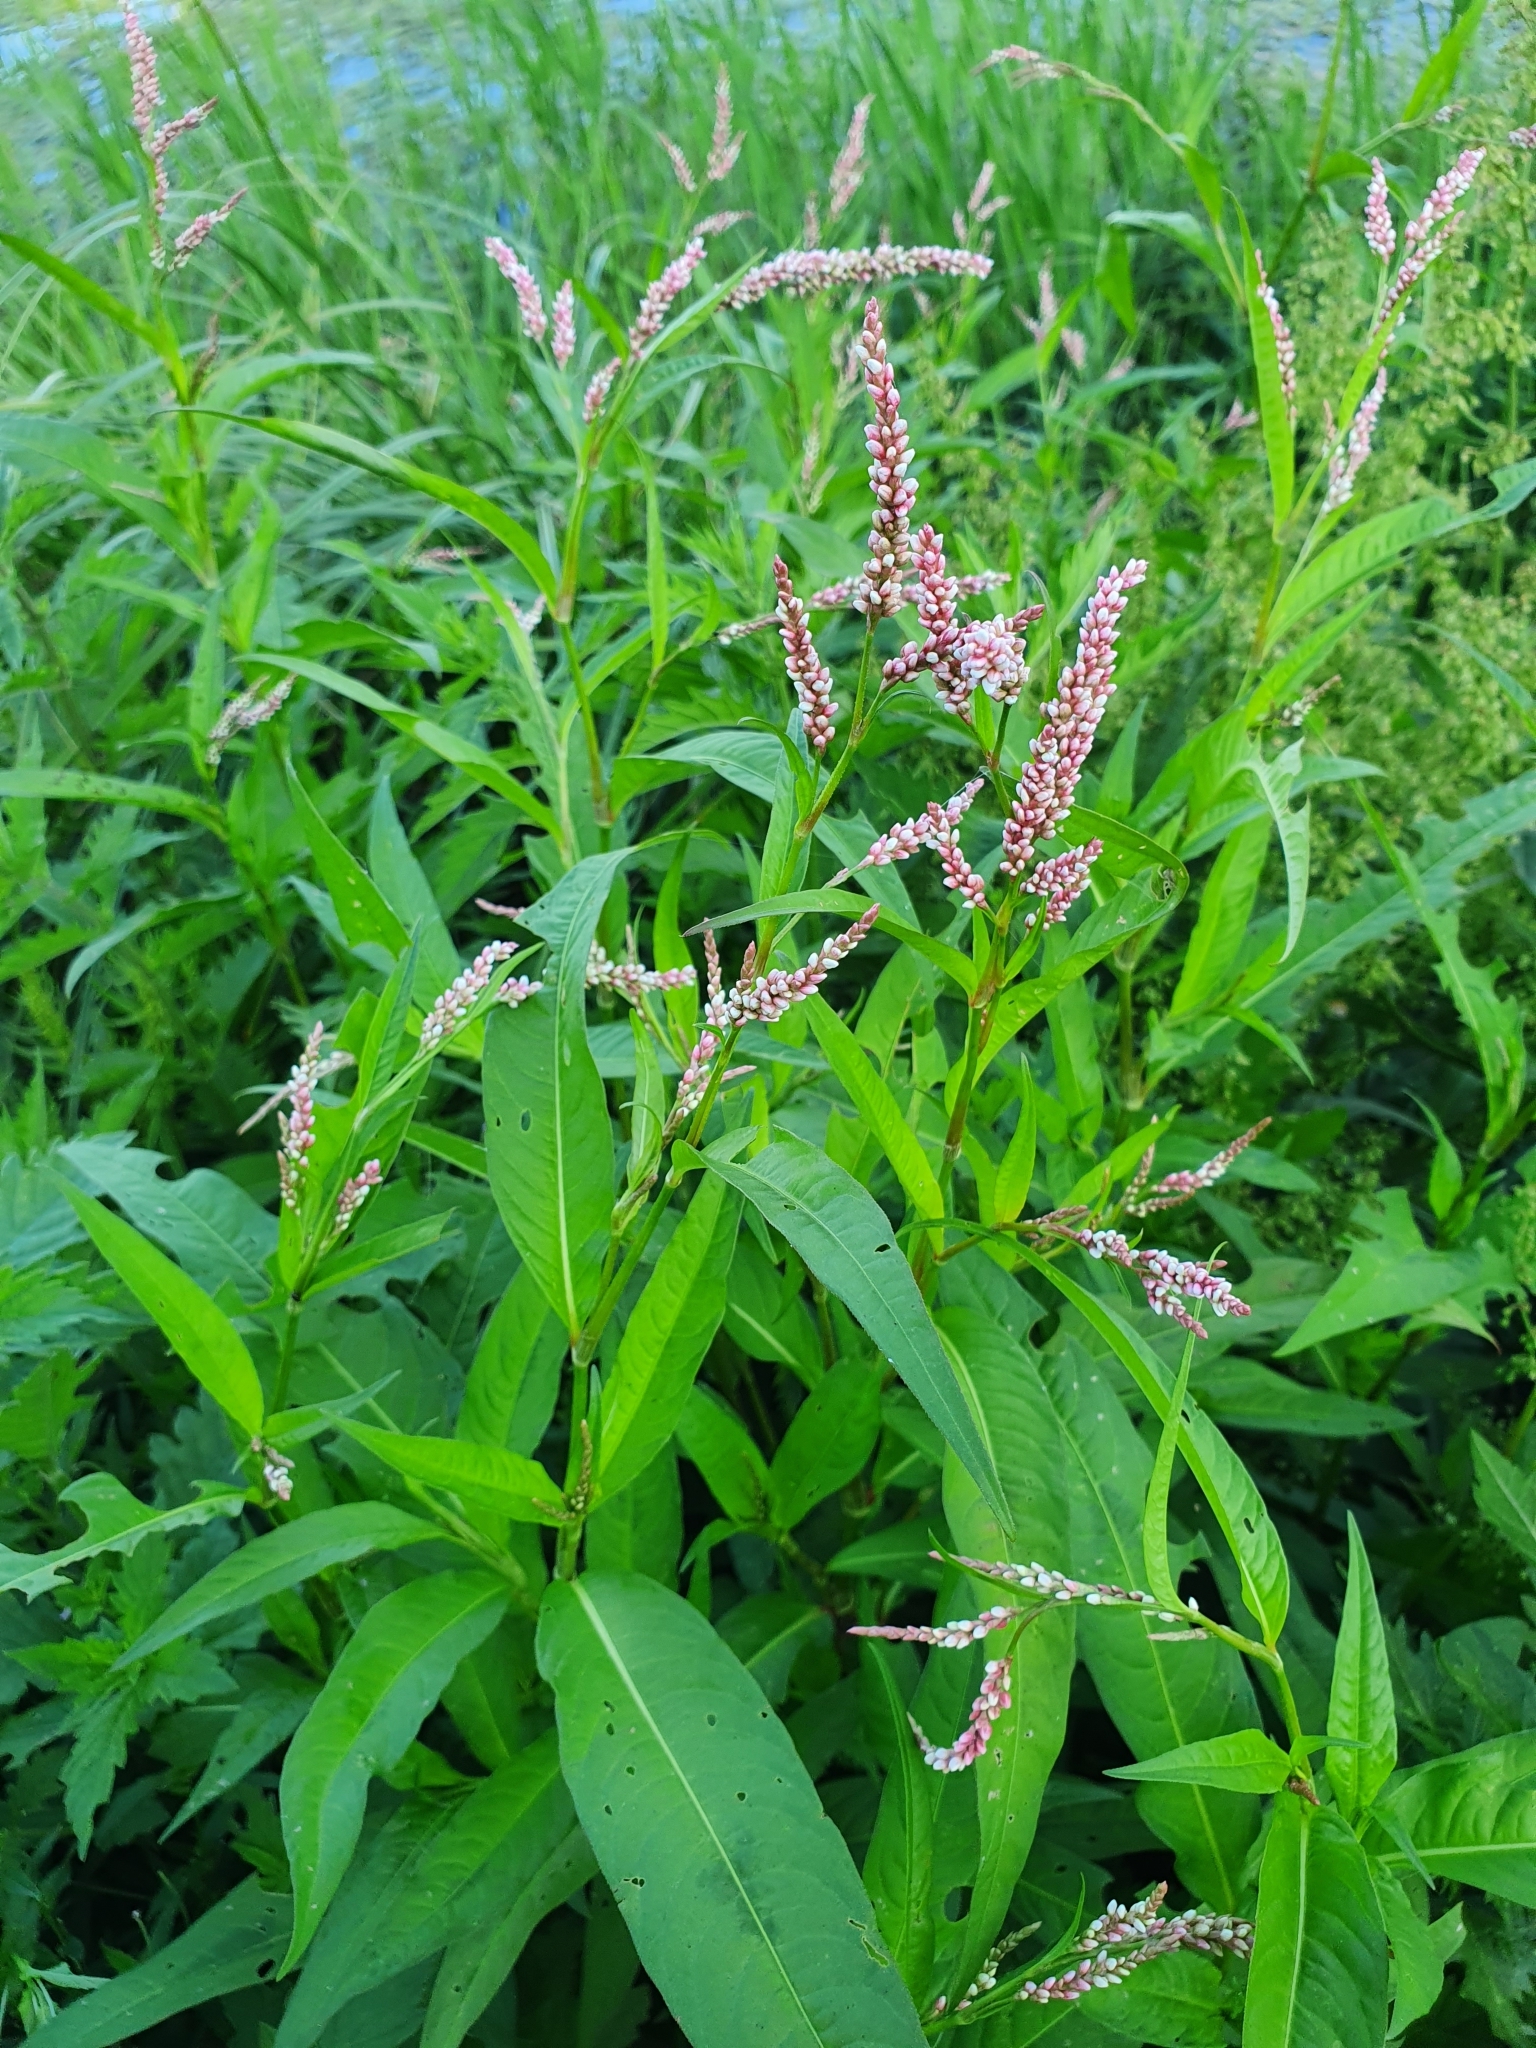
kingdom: Plantae
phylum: Tracheophyta
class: Magnoliopsida
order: Caryophyllales
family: Polygonaceae
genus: Persicaria
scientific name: Persicaria lapathifolia
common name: Curlytop knotweed
